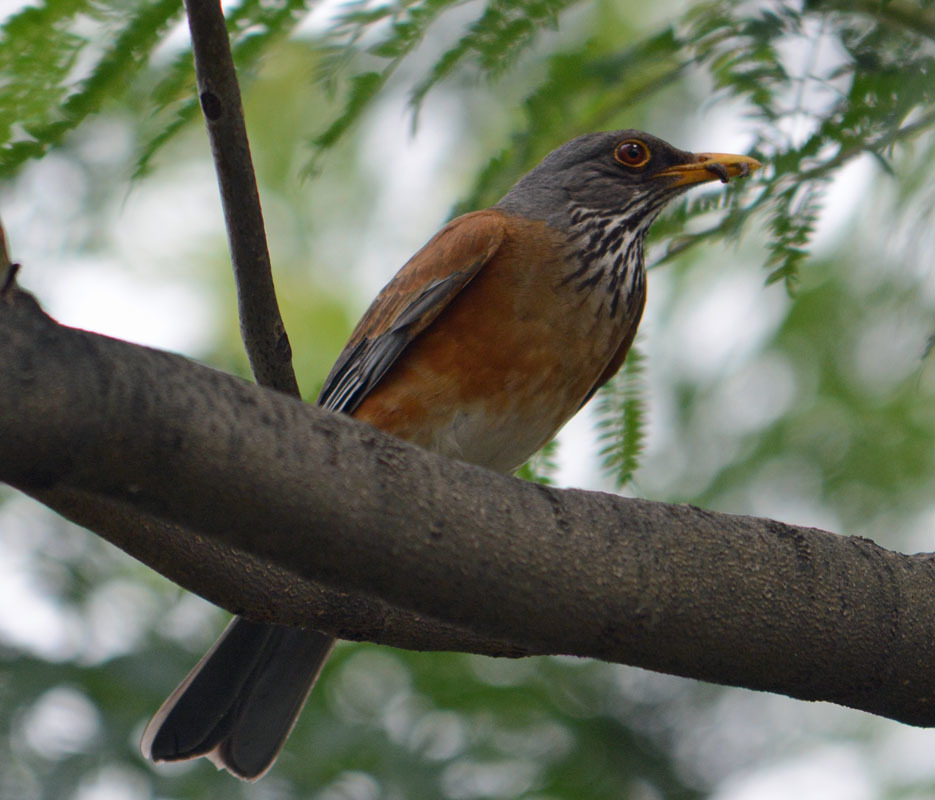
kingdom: Animalia
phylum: Chordata
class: Aves
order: Passeriformes
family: Turdidae
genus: Turdus
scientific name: Turdus rufopalliatus
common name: Rufous-backed robin
